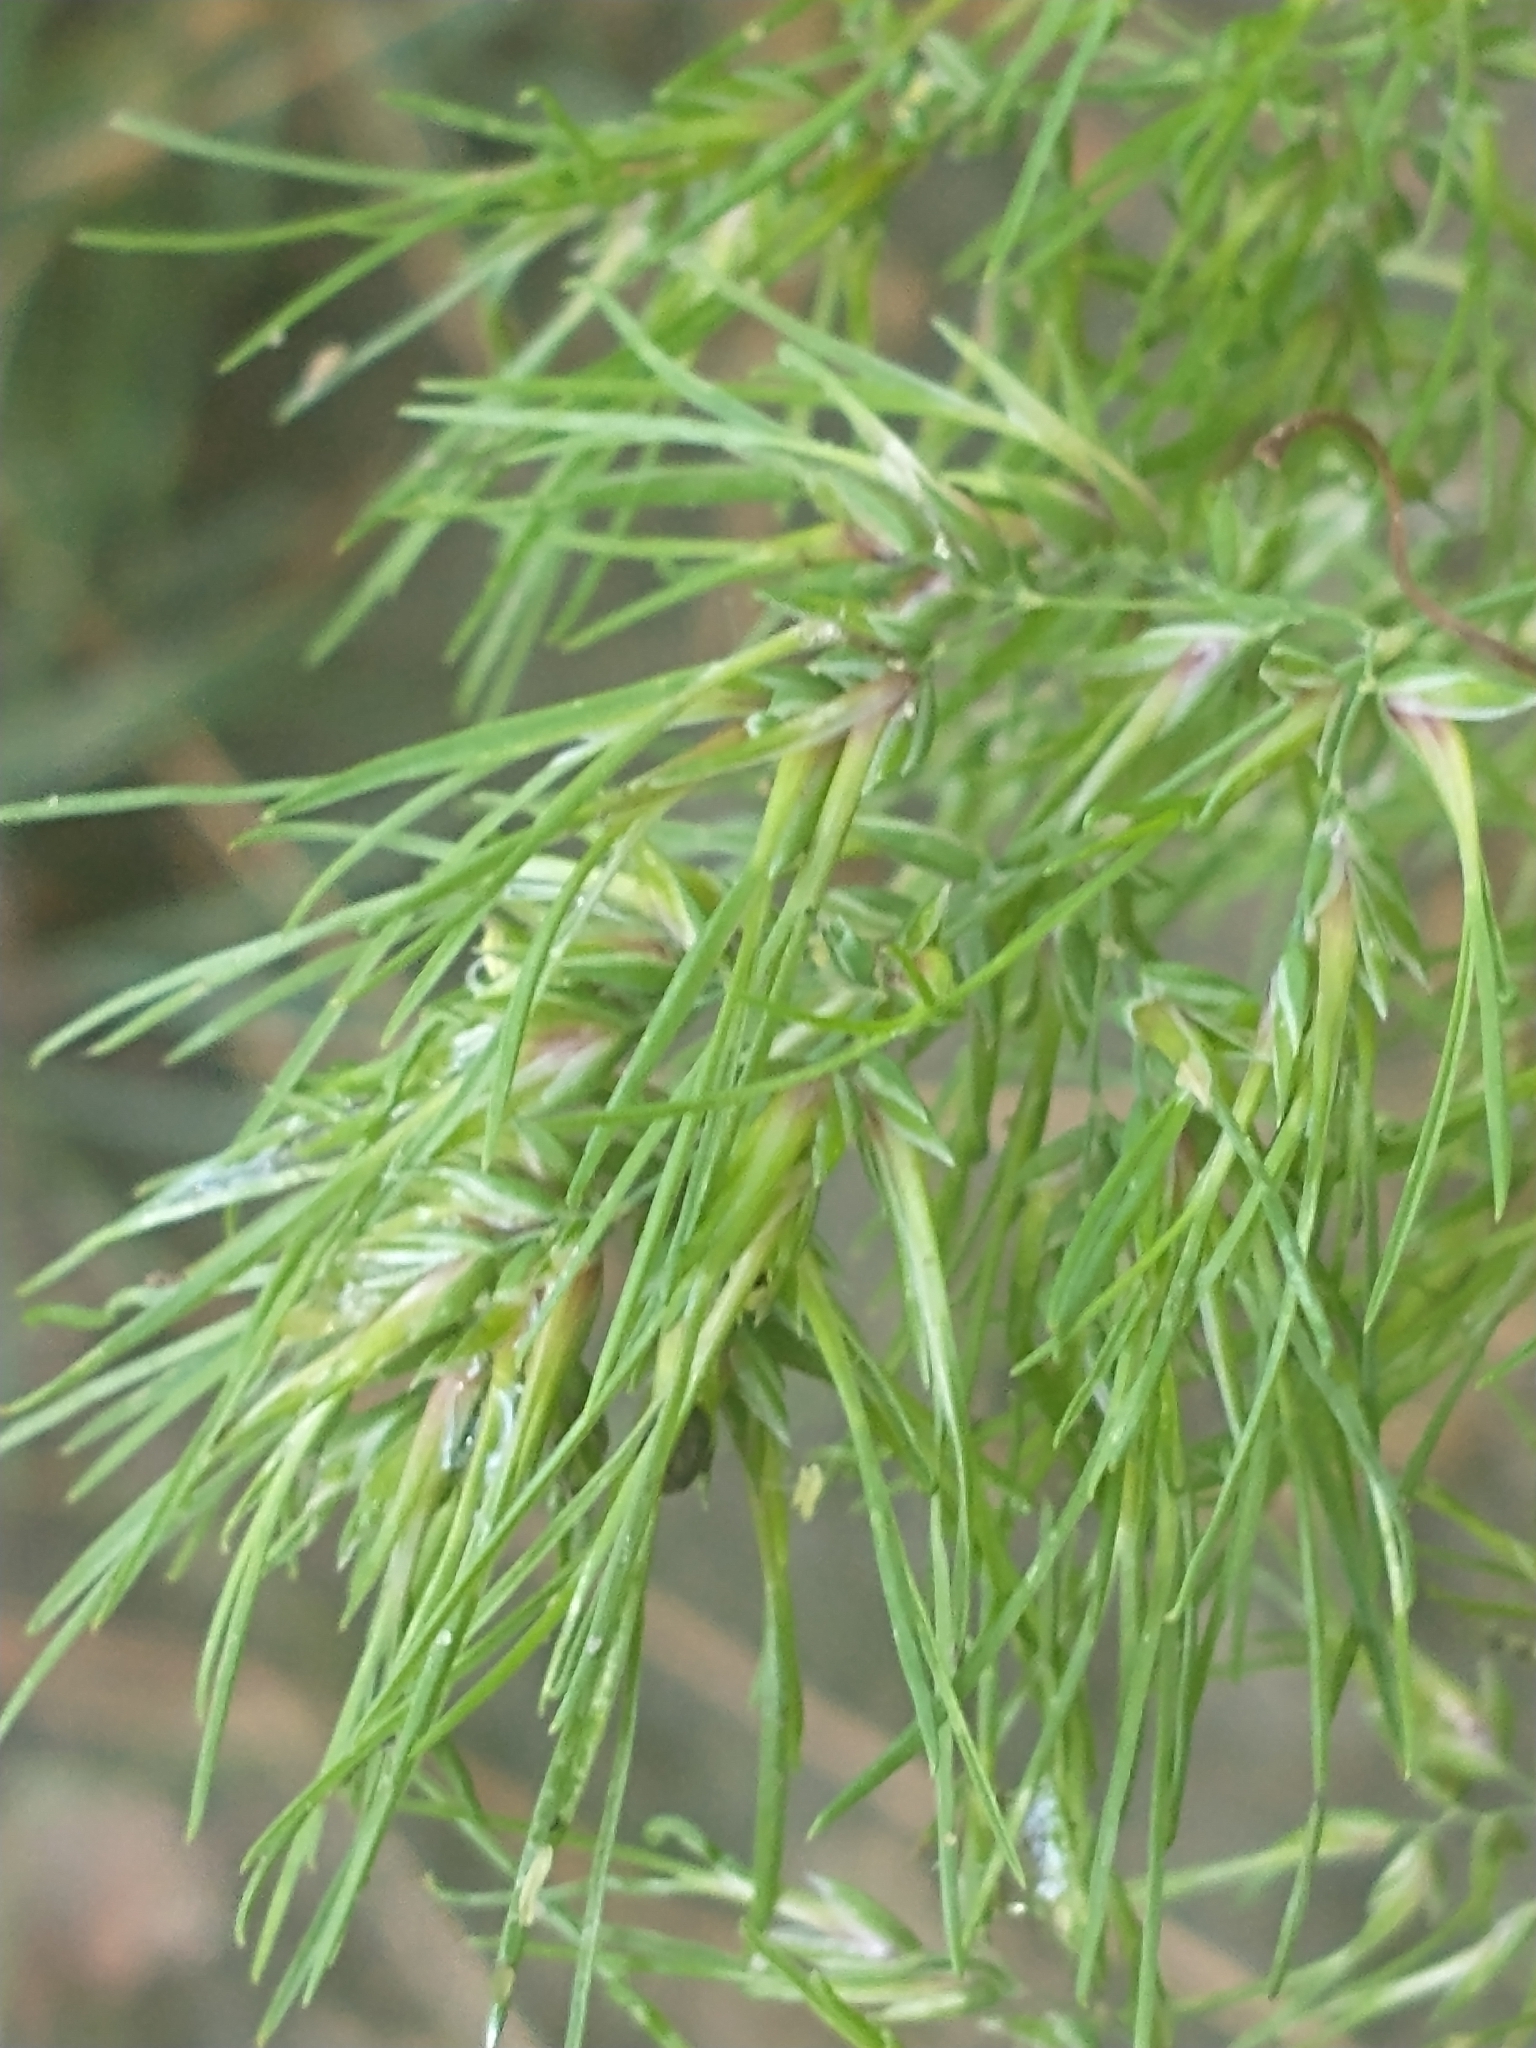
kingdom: Plantae
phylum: Tracheophyta
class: Liliopsida
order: Poales
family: Poaceae
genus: Poa
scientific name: Poa bulbosa
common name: Bulbous bluegrass
